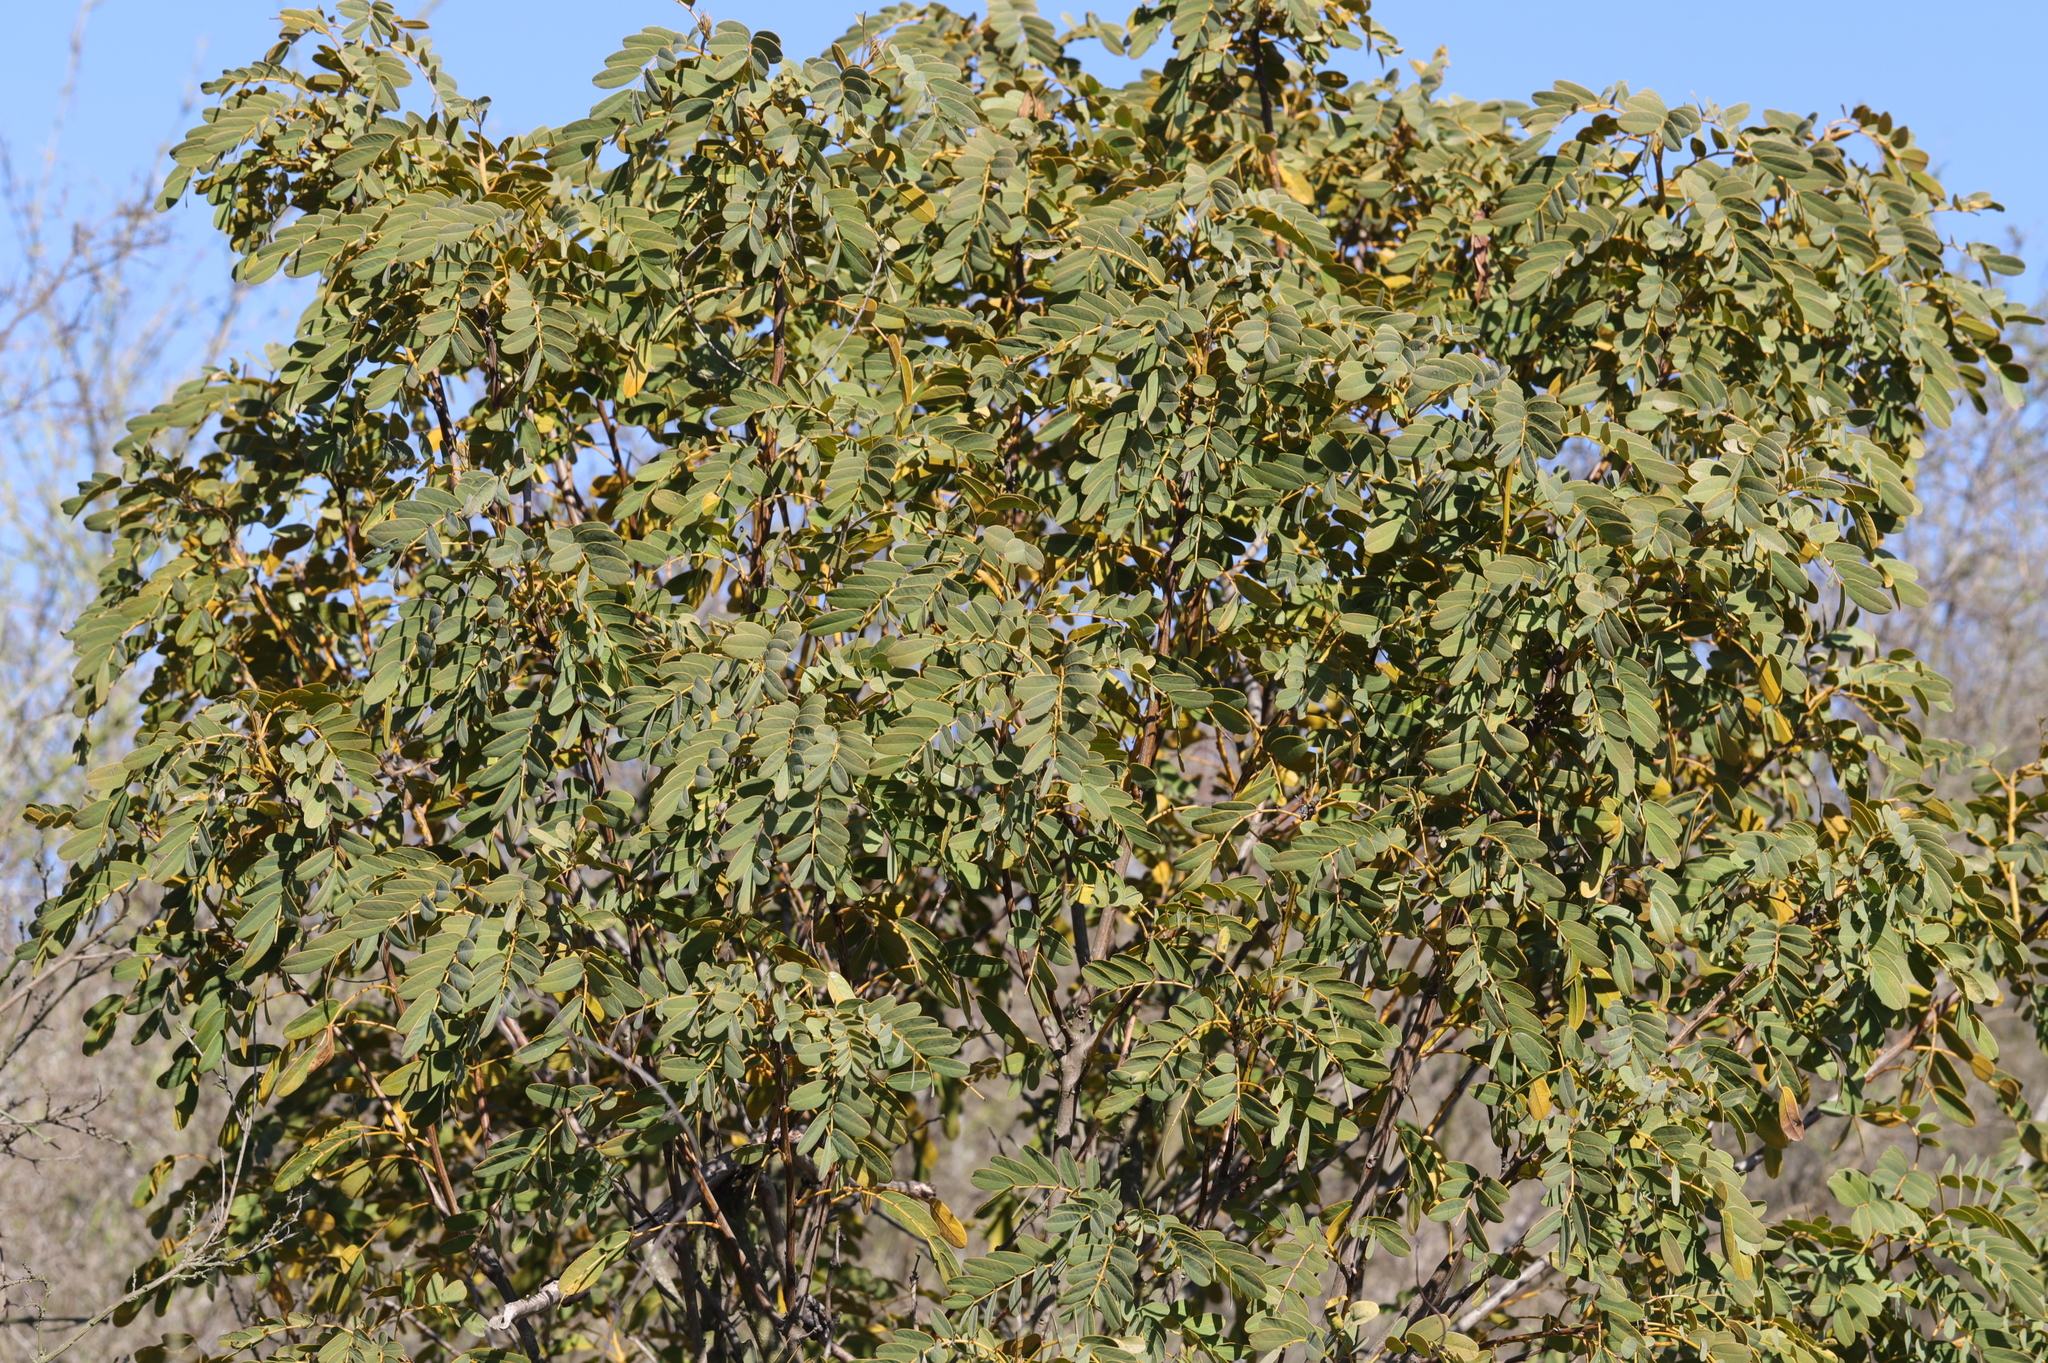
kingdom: Plantae
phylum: Tracheophyta
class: Magnoliopsida
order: Fabales
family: Fabaceae
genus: Senna
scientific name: Senna candolleana
